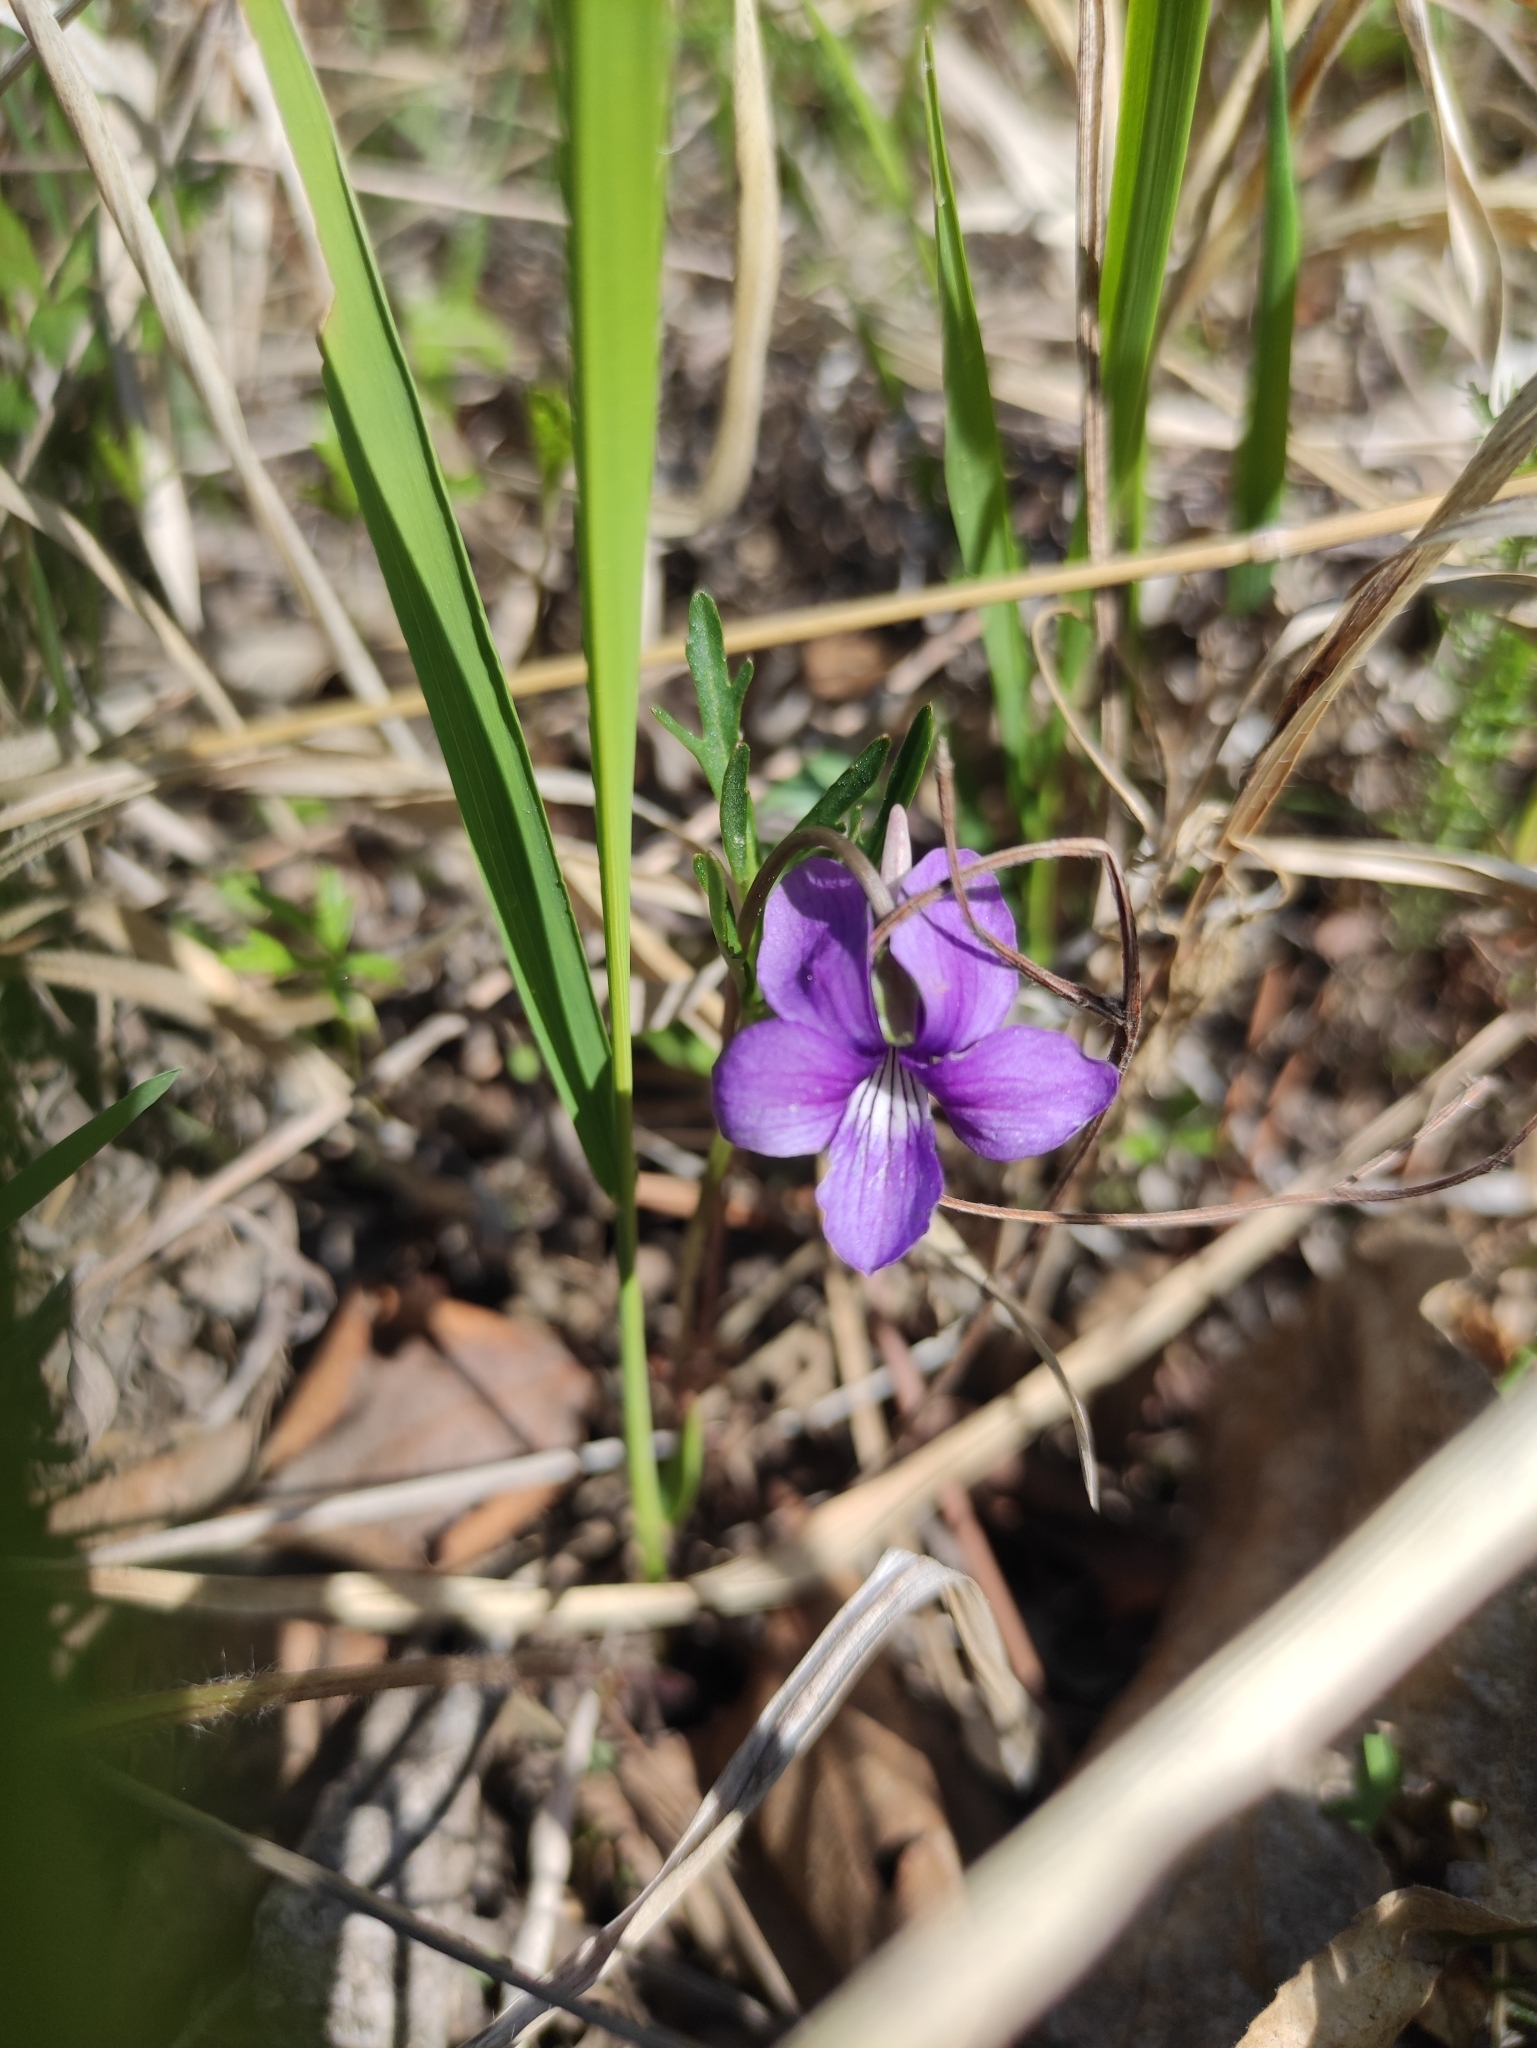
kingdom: Plantae
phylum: Tracheophyta
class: Magnoliopsida
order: Malpighiales
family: Violaceae
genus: Viola
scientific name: Viola multifida
